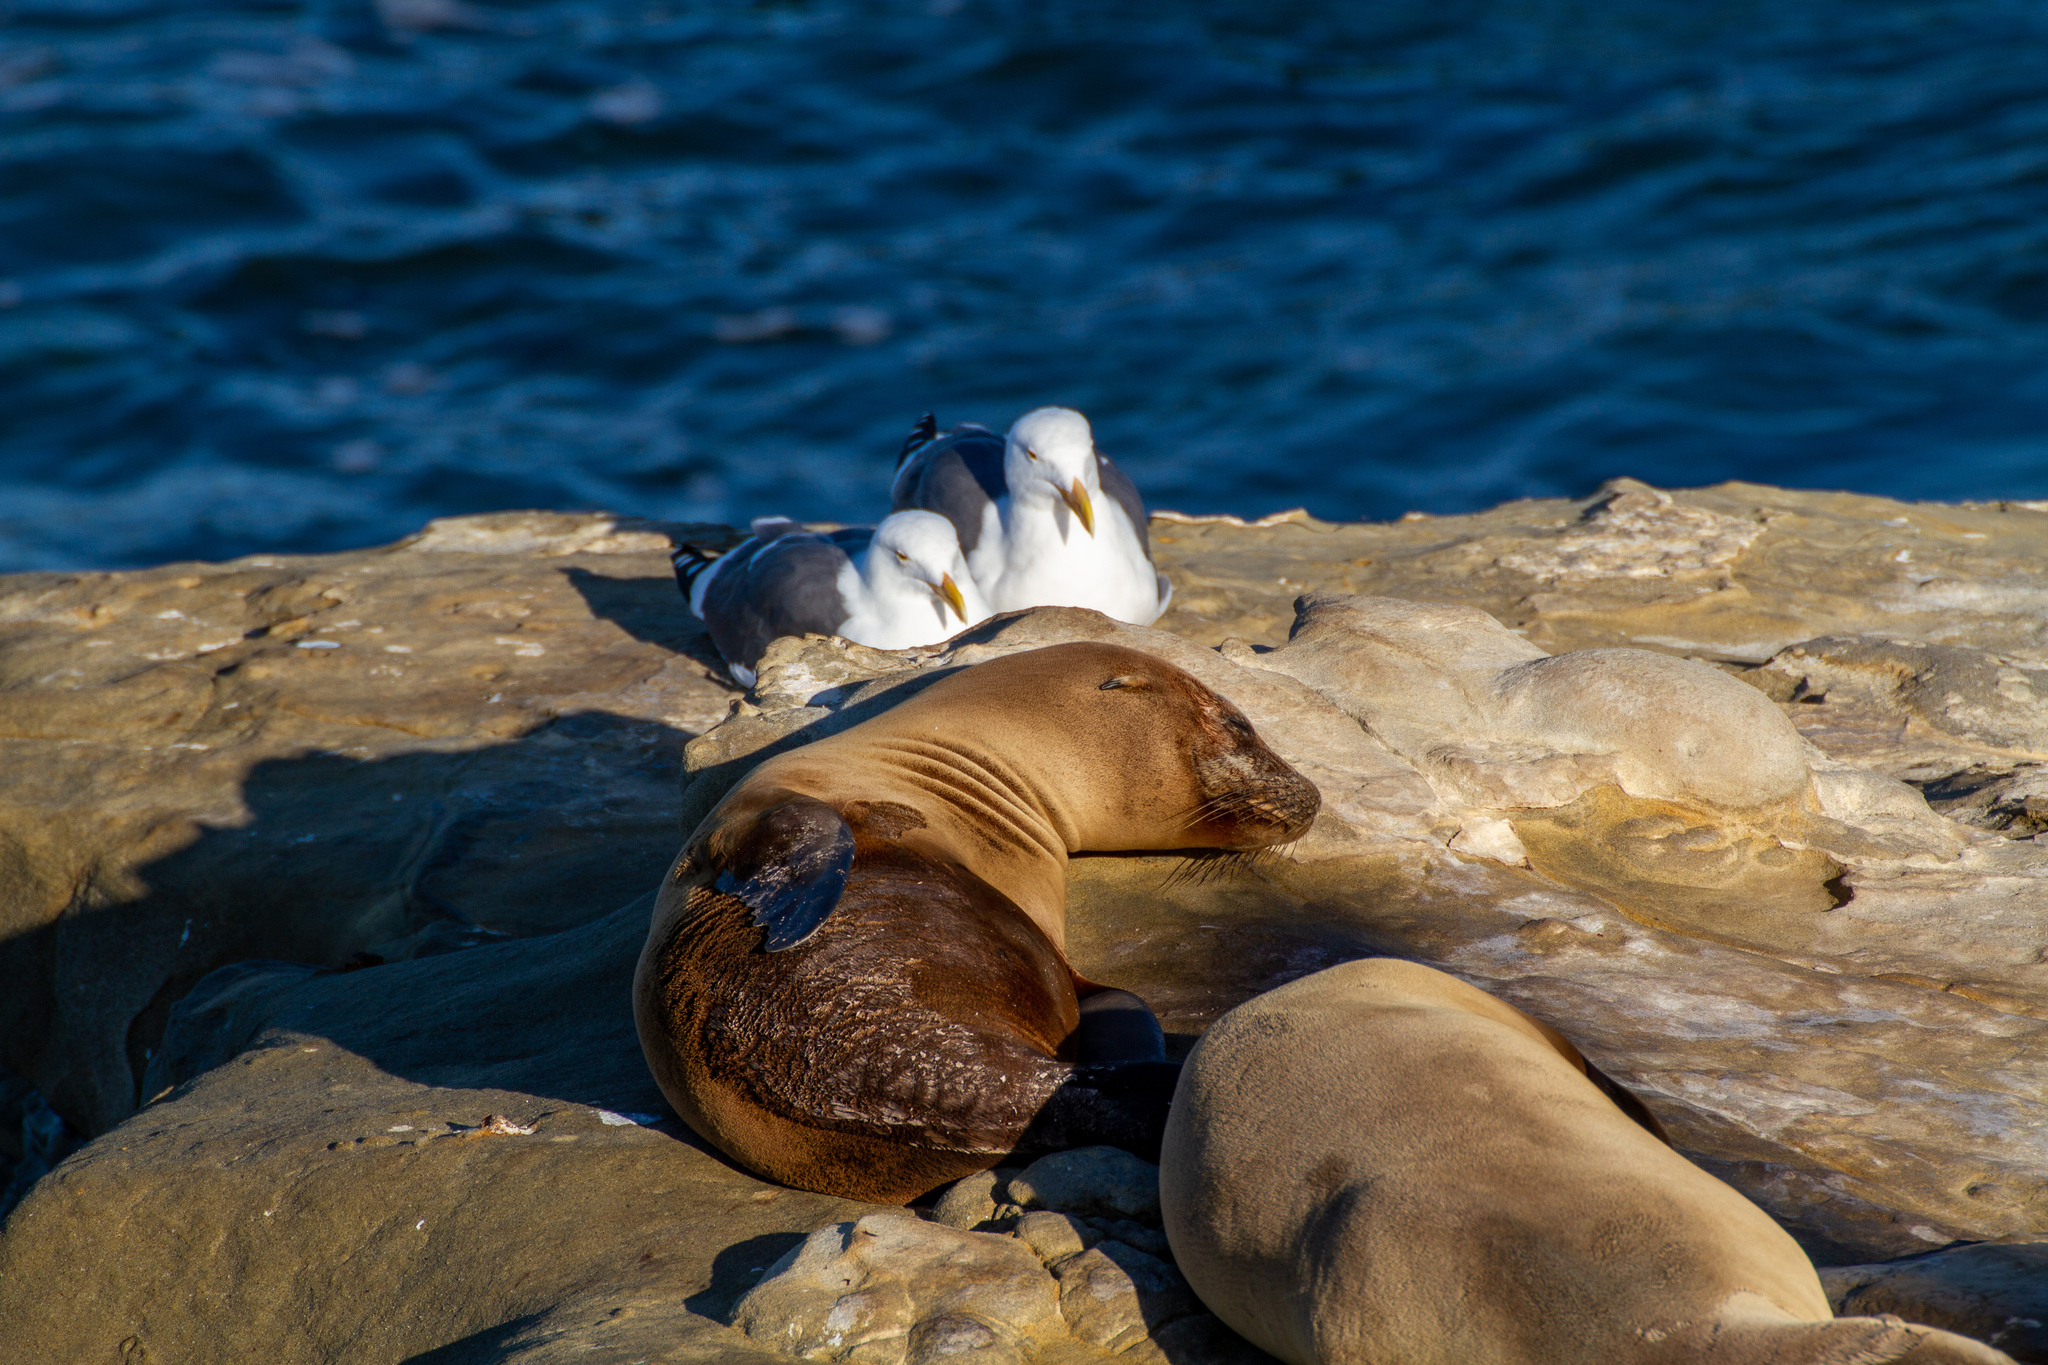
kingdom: Animalia
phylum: Chordata
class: Aves
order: Charadriiformes
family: Laridae
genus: Larus
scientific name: Larus occidentalis
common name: Western gull
